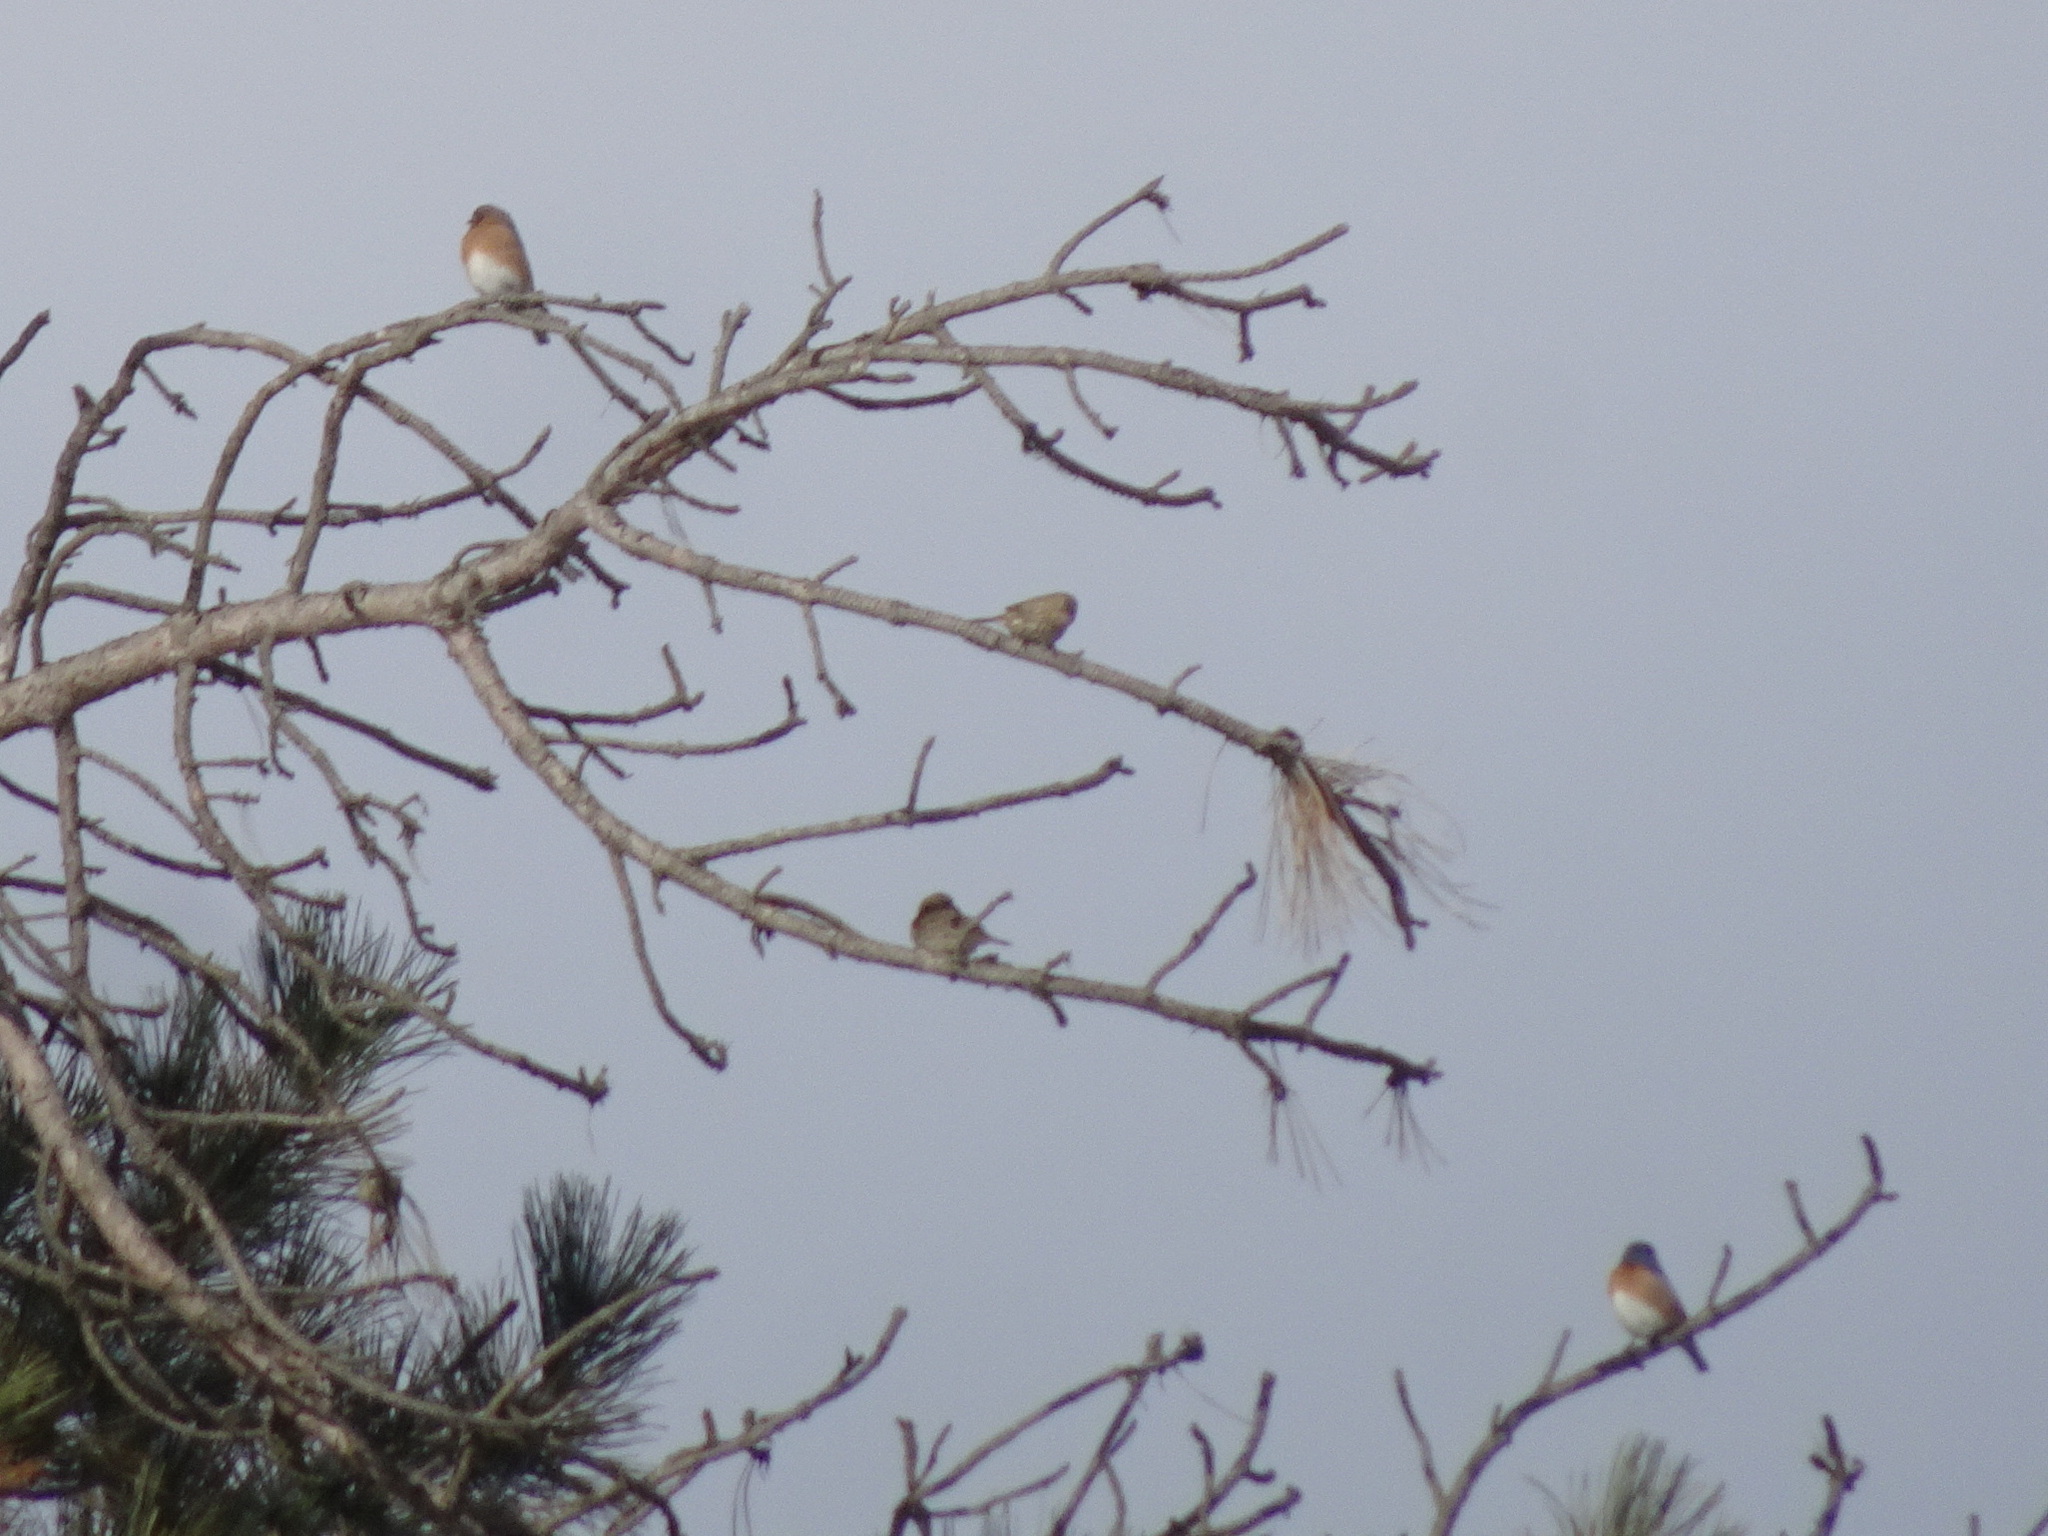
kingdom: Animalia
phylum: Chordata
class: Aves
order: Passeriformes
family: Fringillidae
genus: Haemorhous
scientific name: Haemorhous mexicanus
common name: House finch
